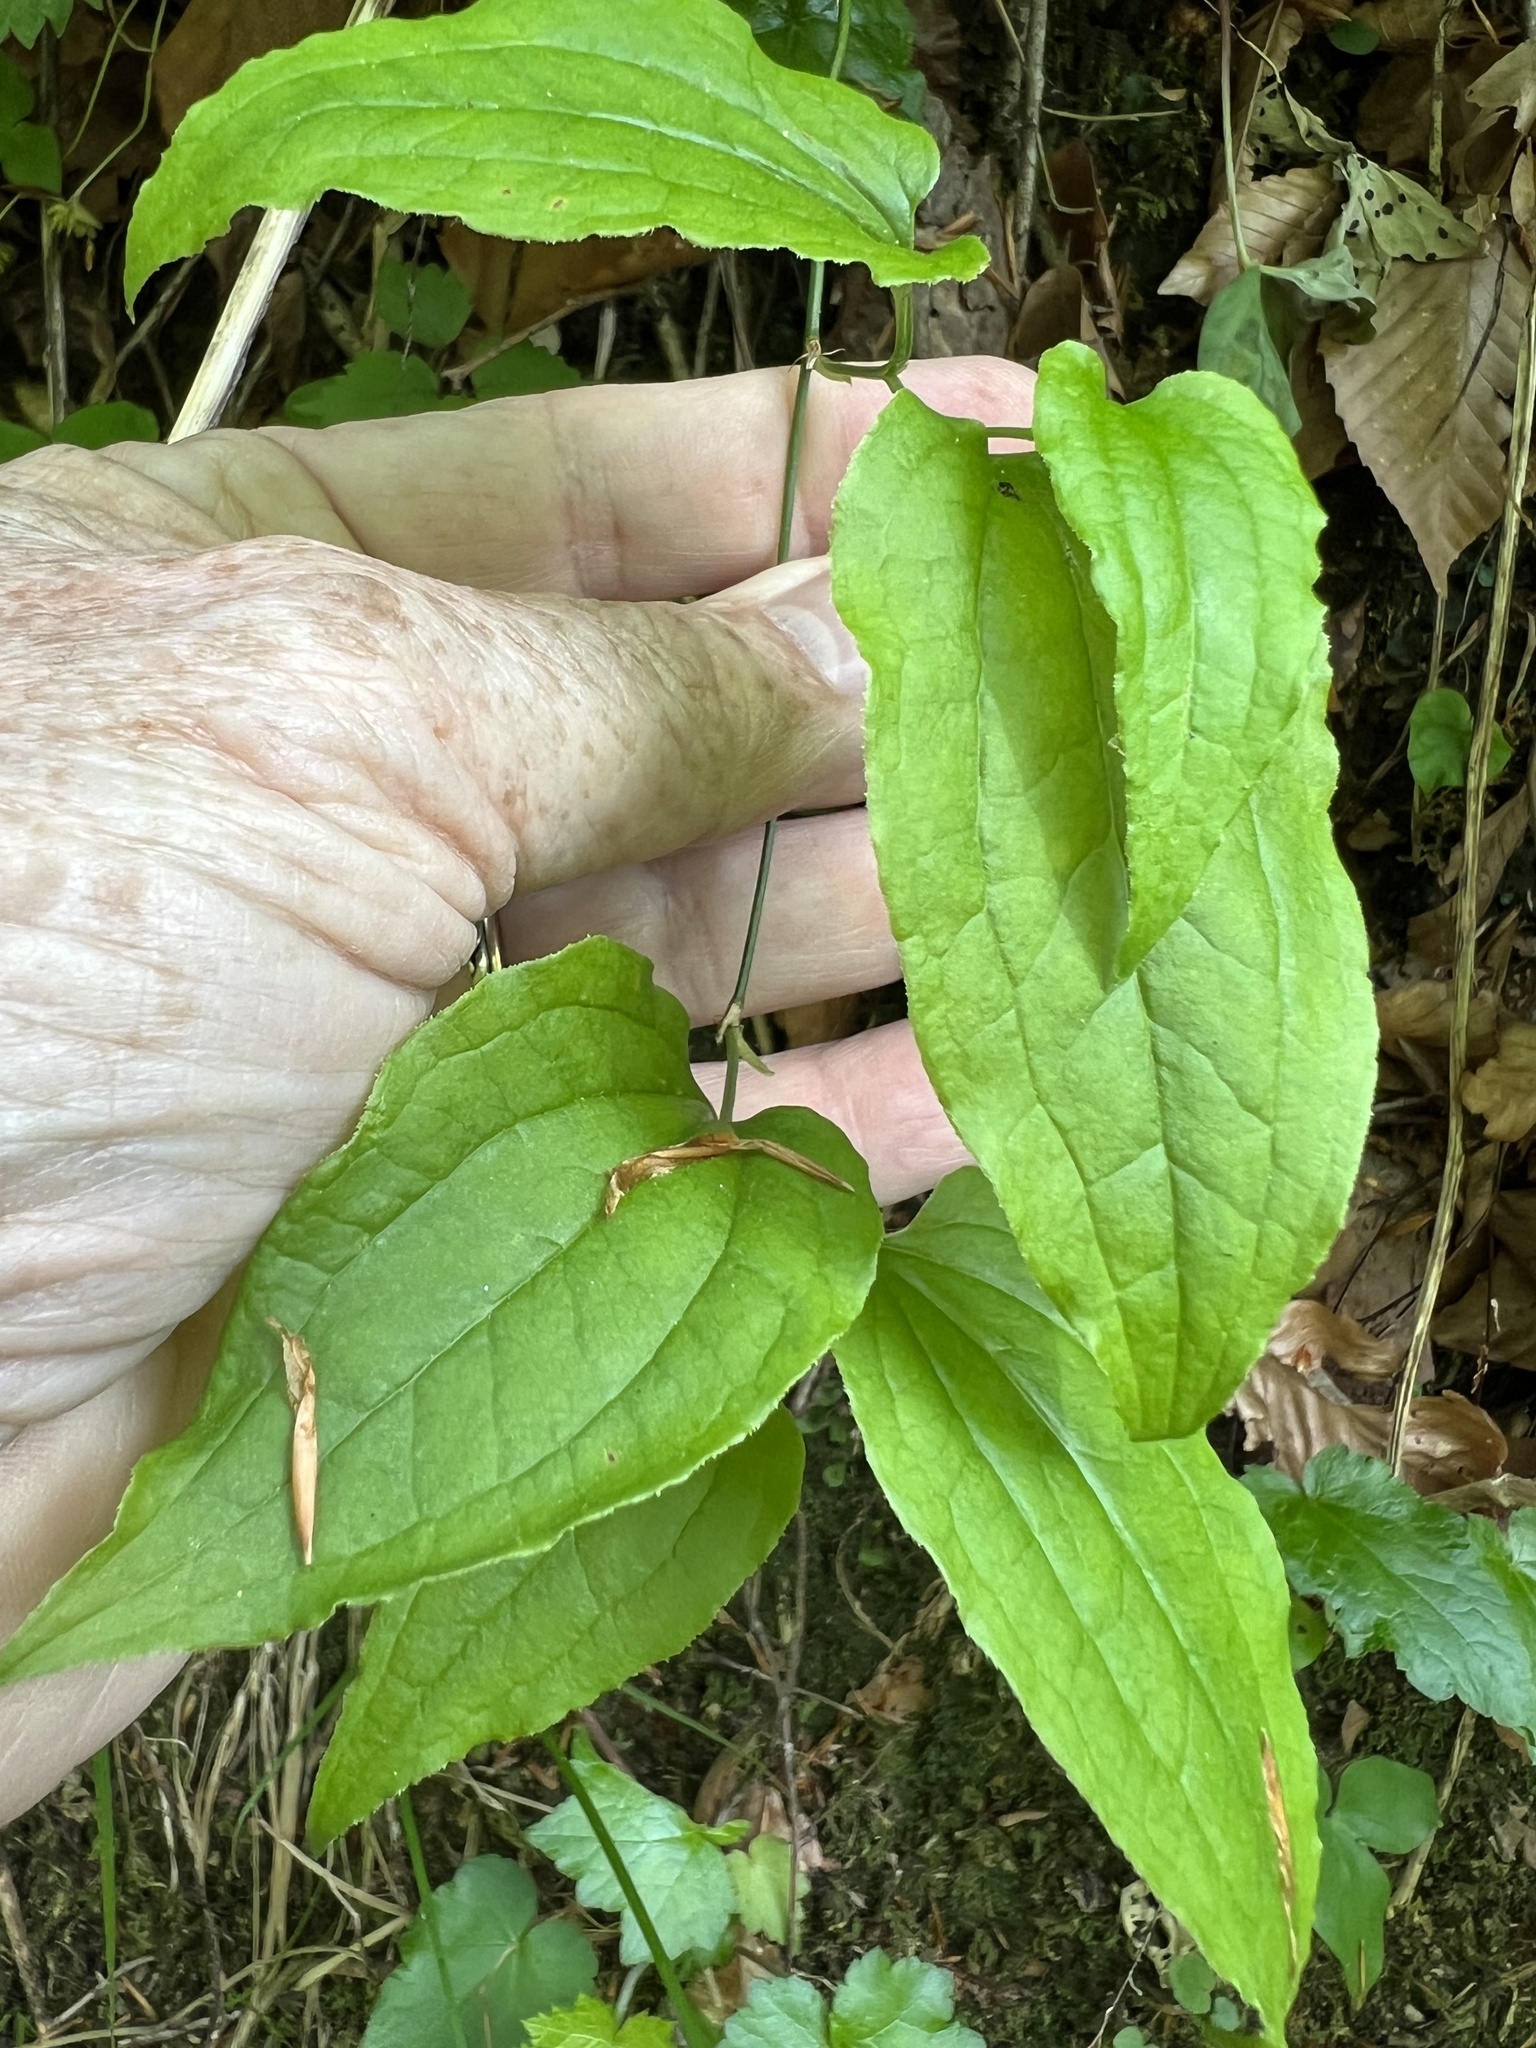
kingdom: Plantae
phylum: Tracheophyta
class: Liliopsida
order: Liliales
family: Smilacaceae
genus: Smilax
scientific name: Smilax tamnoides
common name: Hellfetter
